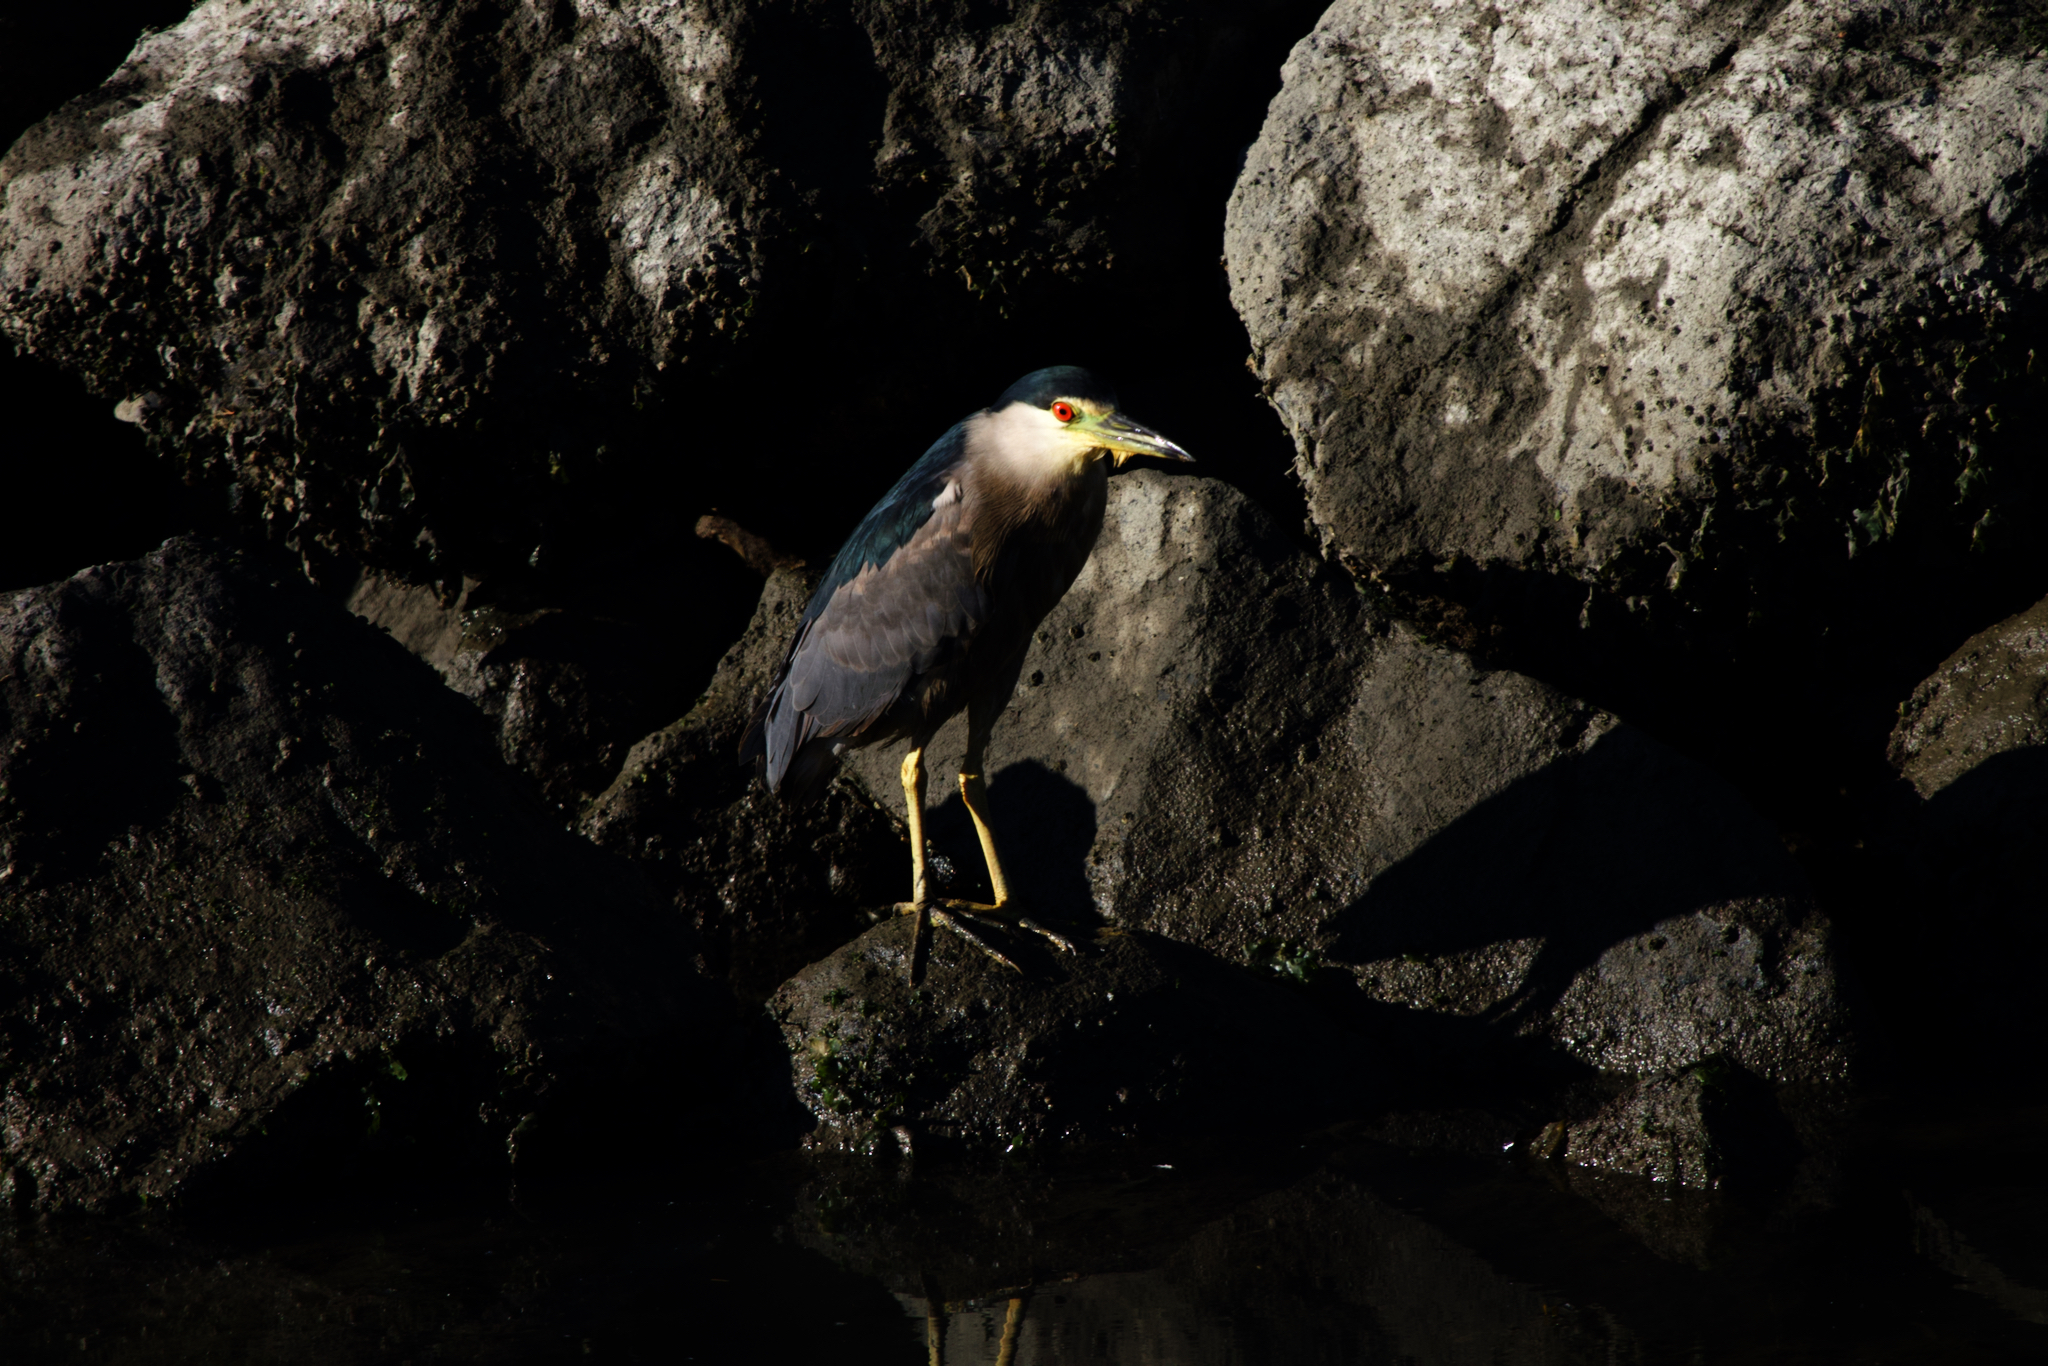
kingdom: Animalia
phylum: Chordata
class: Aves
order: Pelecaniformes
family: Ardeidae
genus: Nycticorax
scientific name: Nycticorax nycticorax
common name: Black-crowned night heron
